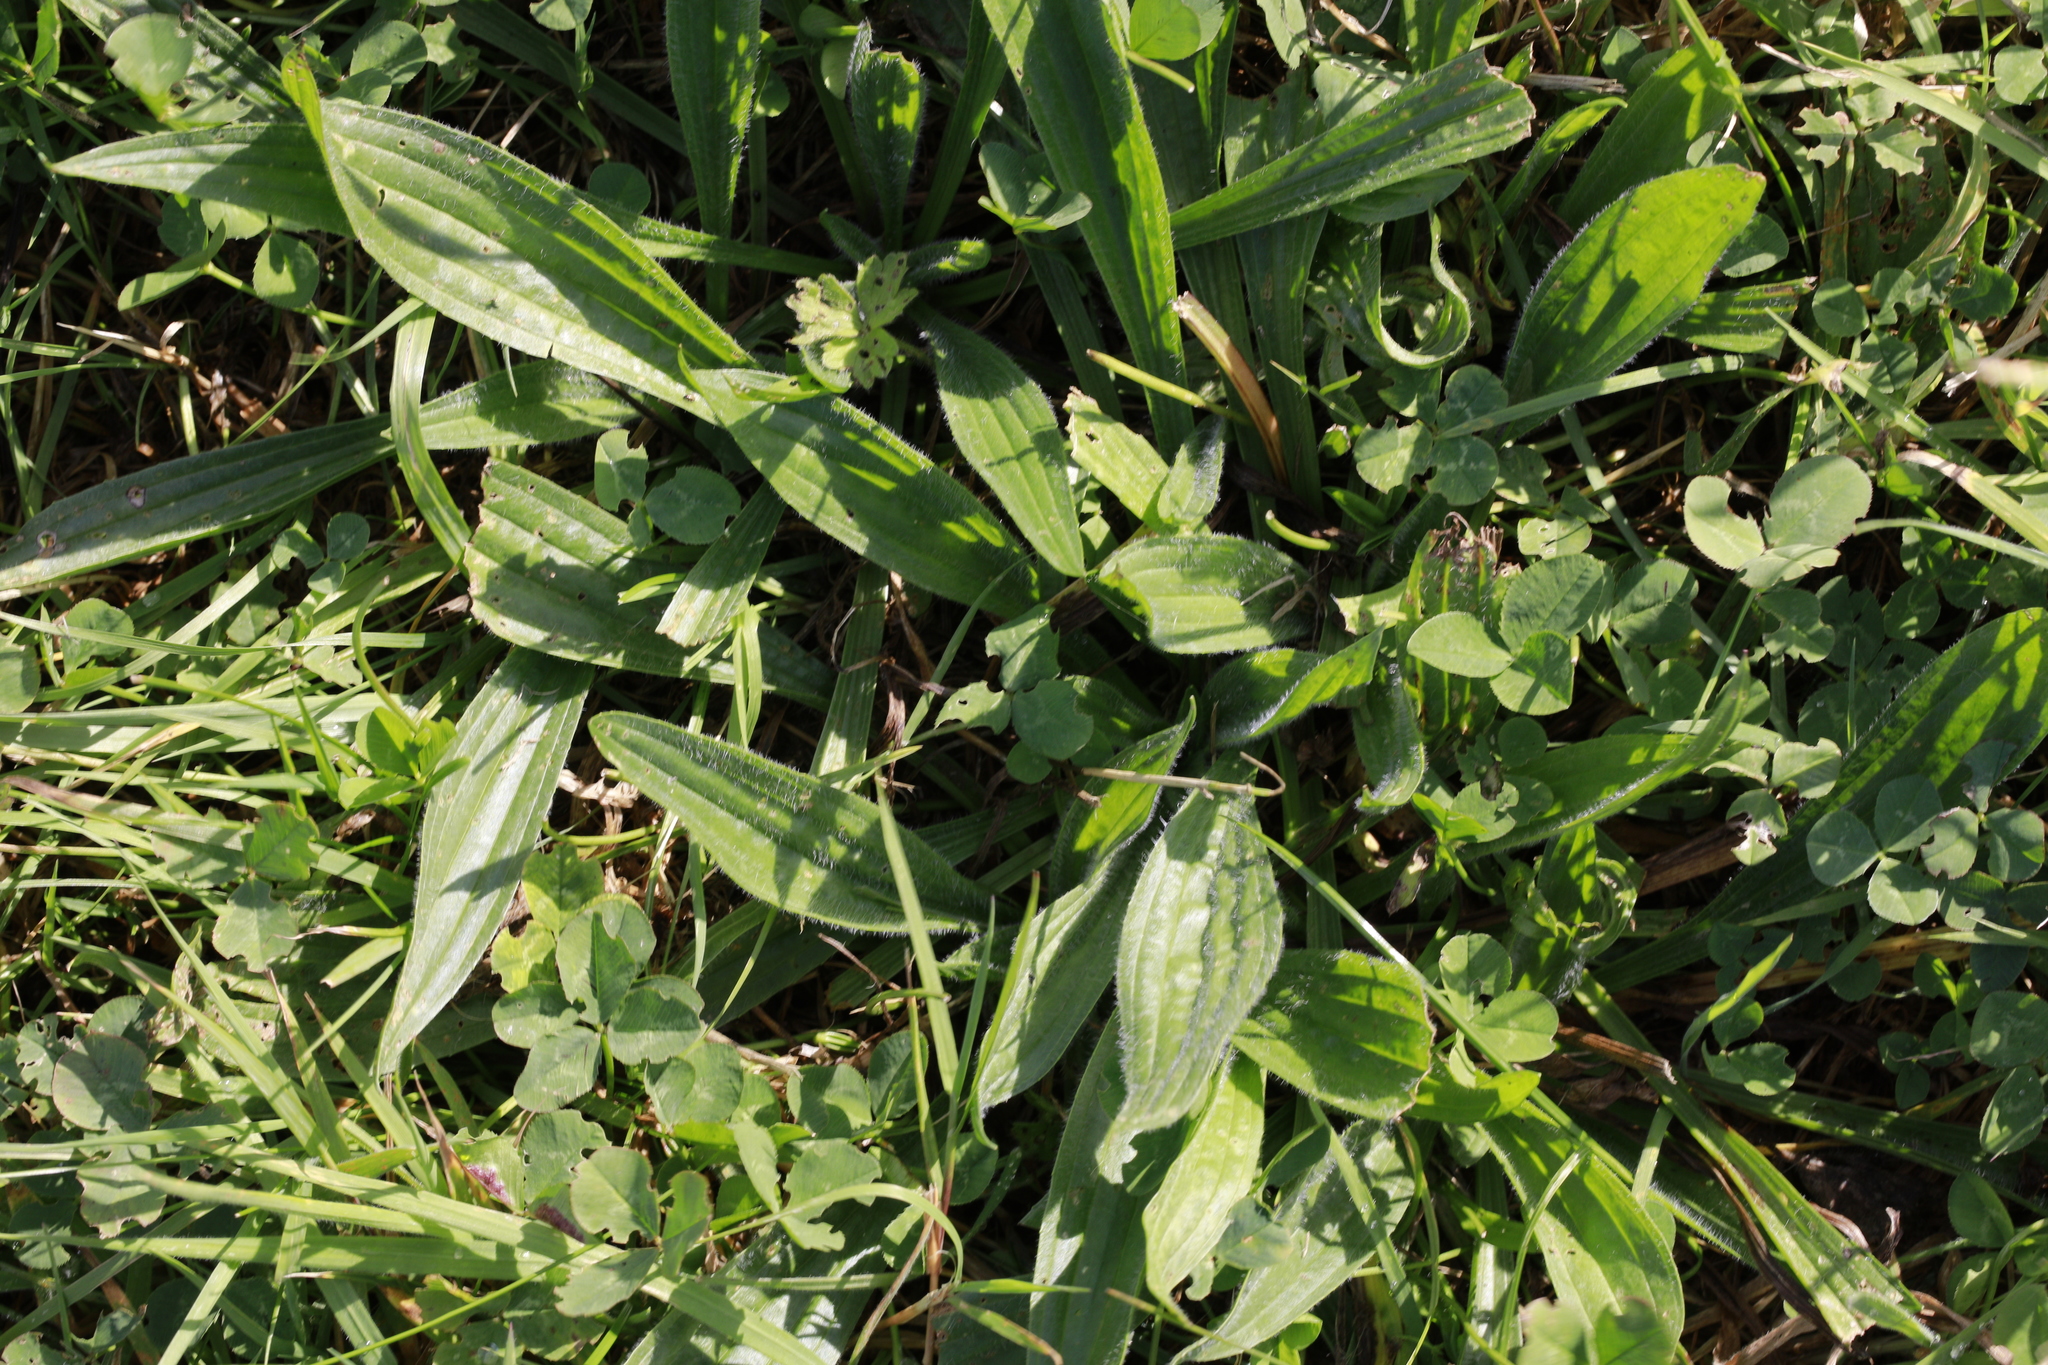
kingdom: Plantae
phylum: Tracheophyta
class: Magnoliopsida
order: Lamiales
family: Plantaginaceae
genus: Plantago
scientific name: Plantago lanceolata
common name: Ribwort plantain
